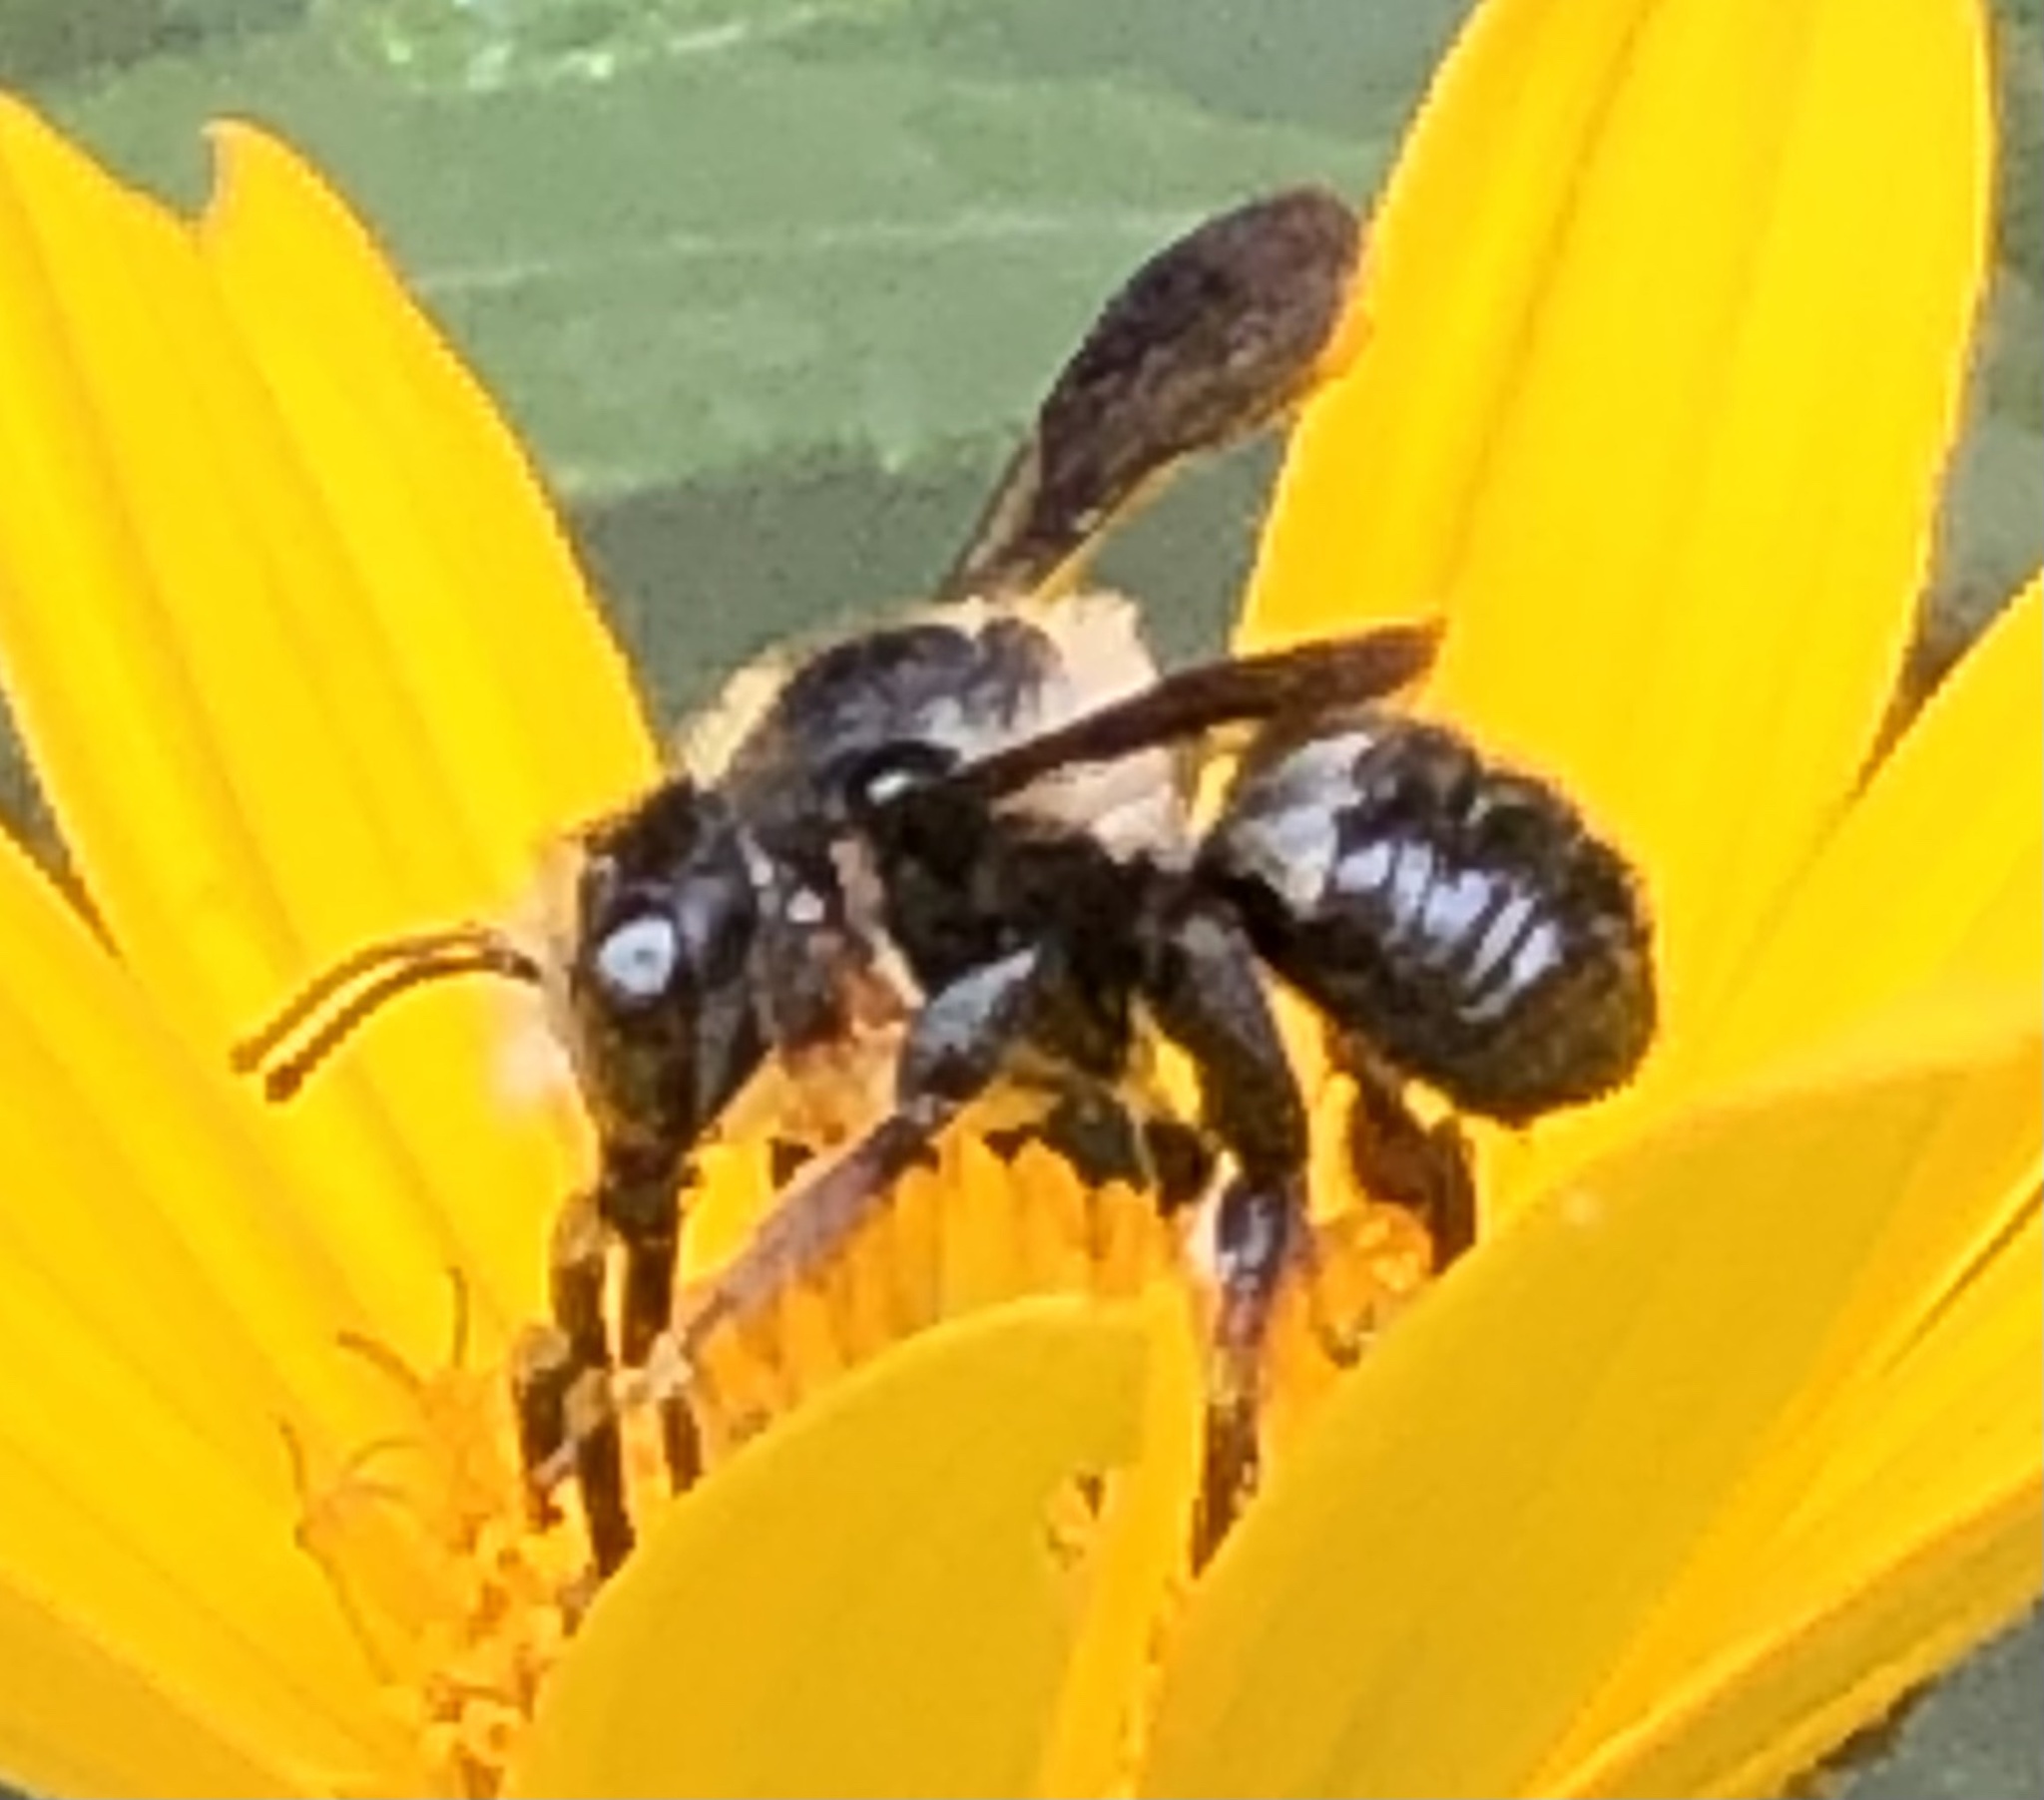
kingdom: Animalia
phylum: Arthropoda
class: Insecta
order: Hymenoptera
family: Megachilidae
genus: Megachile
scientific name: Megachile xylocopoides
